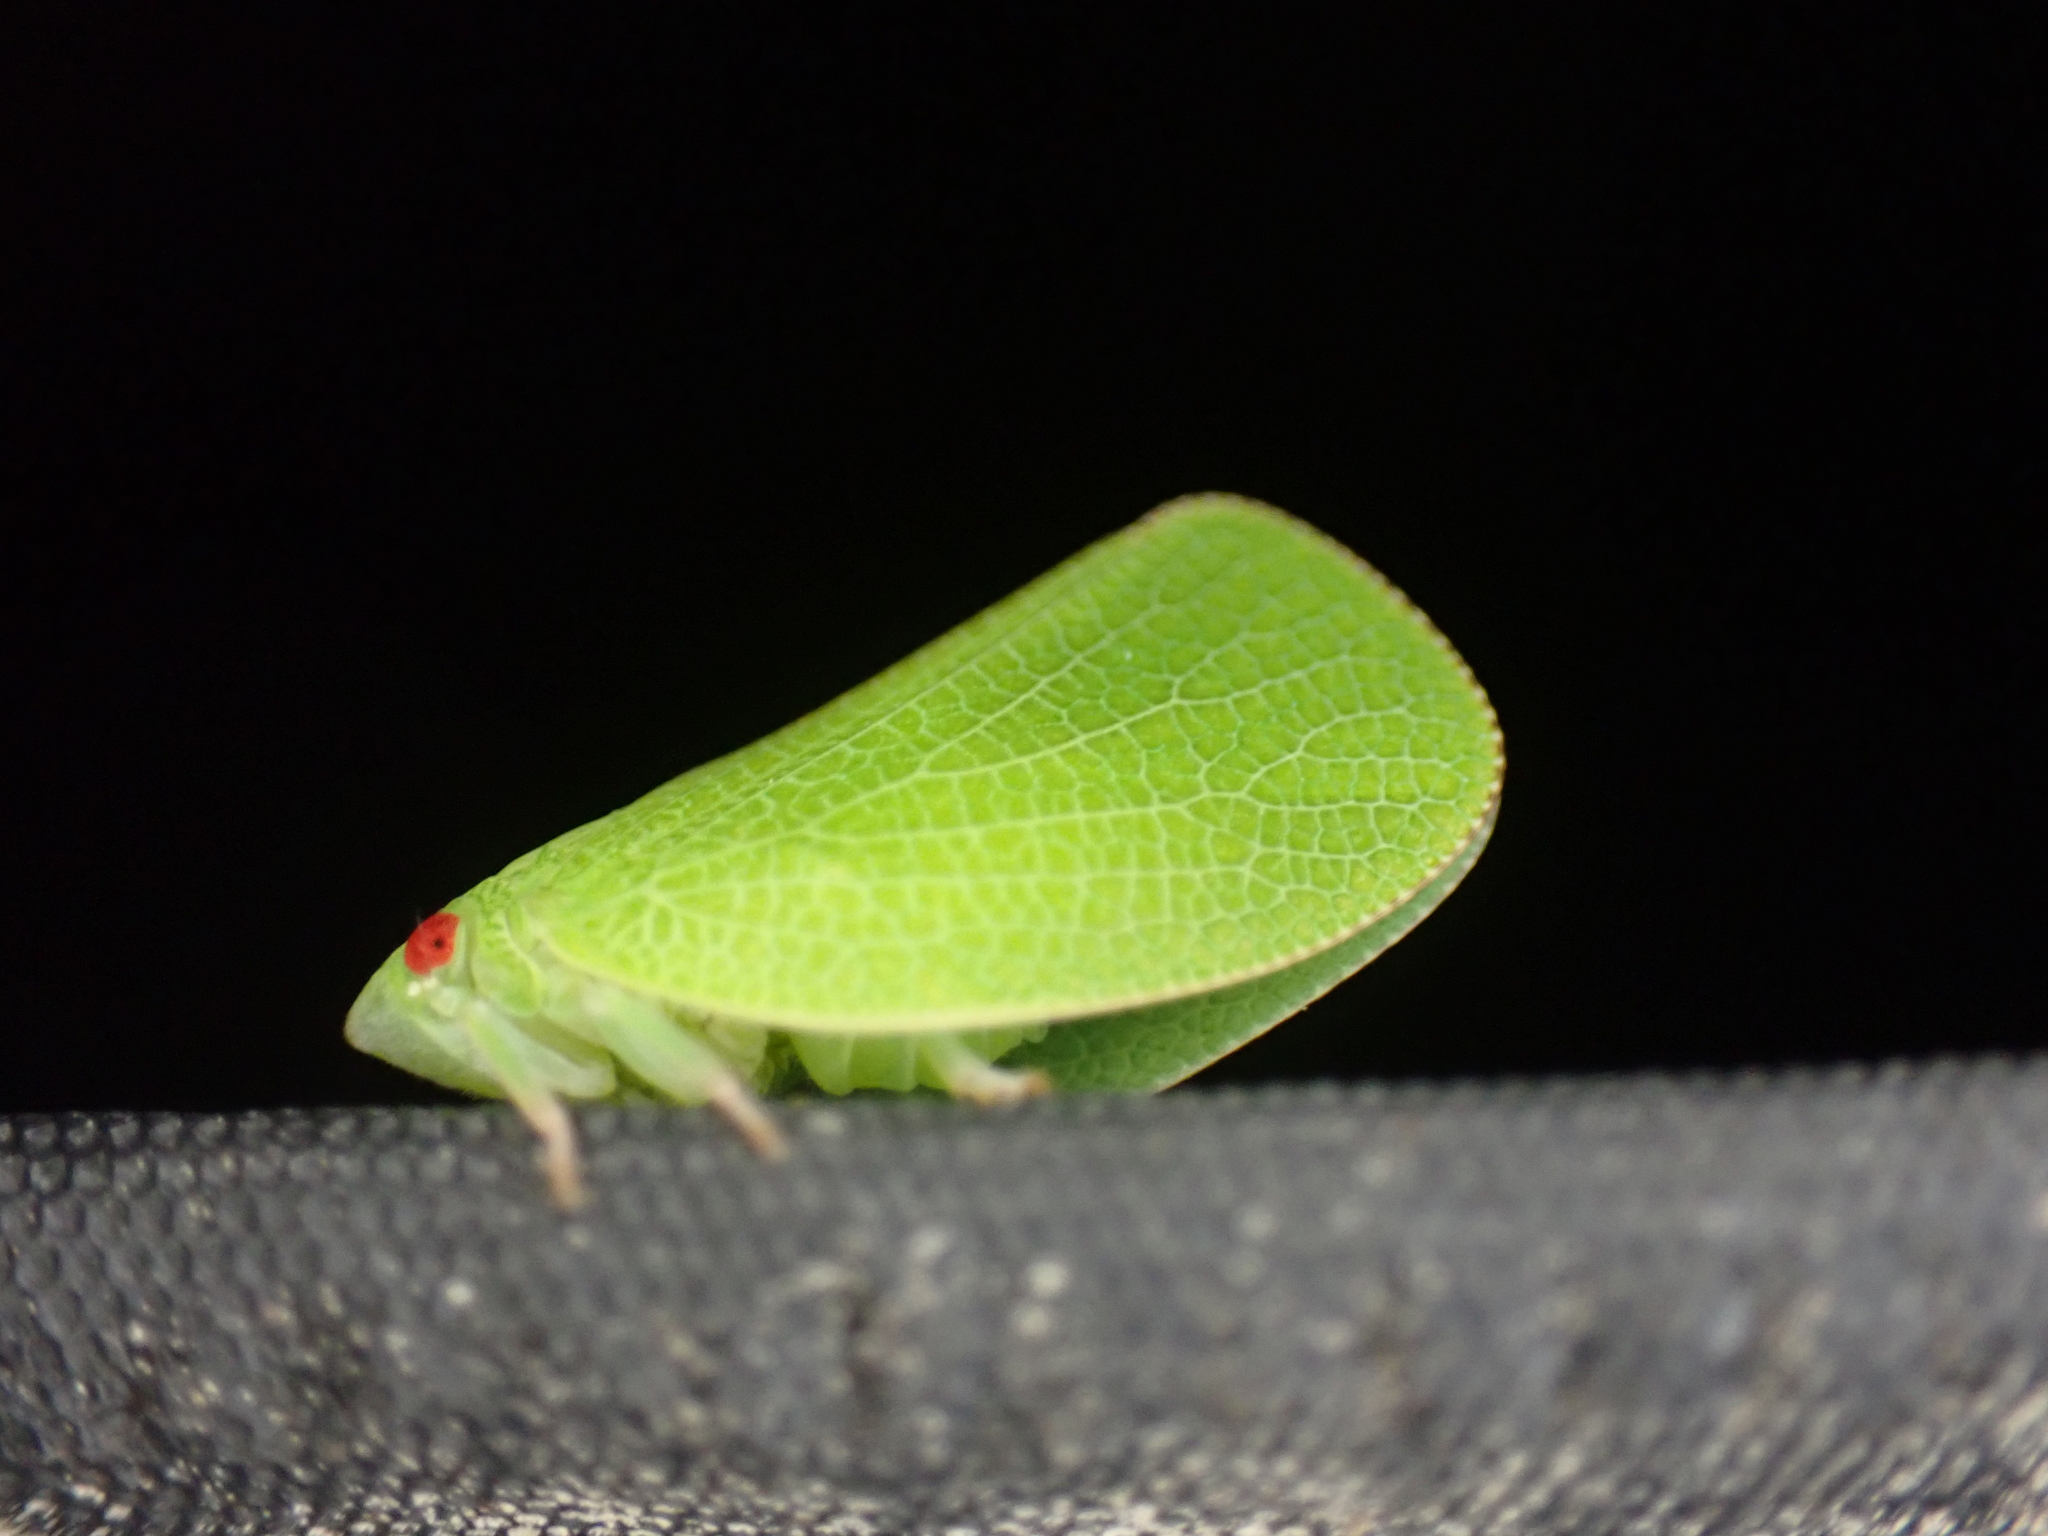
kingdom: Animalia
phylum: Arthropoda
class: Insecta
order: Hemiptera
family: Acanaloniidae
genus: Acanalonia
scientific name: Acanalonia conica
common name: Green cone-headed planthopper
